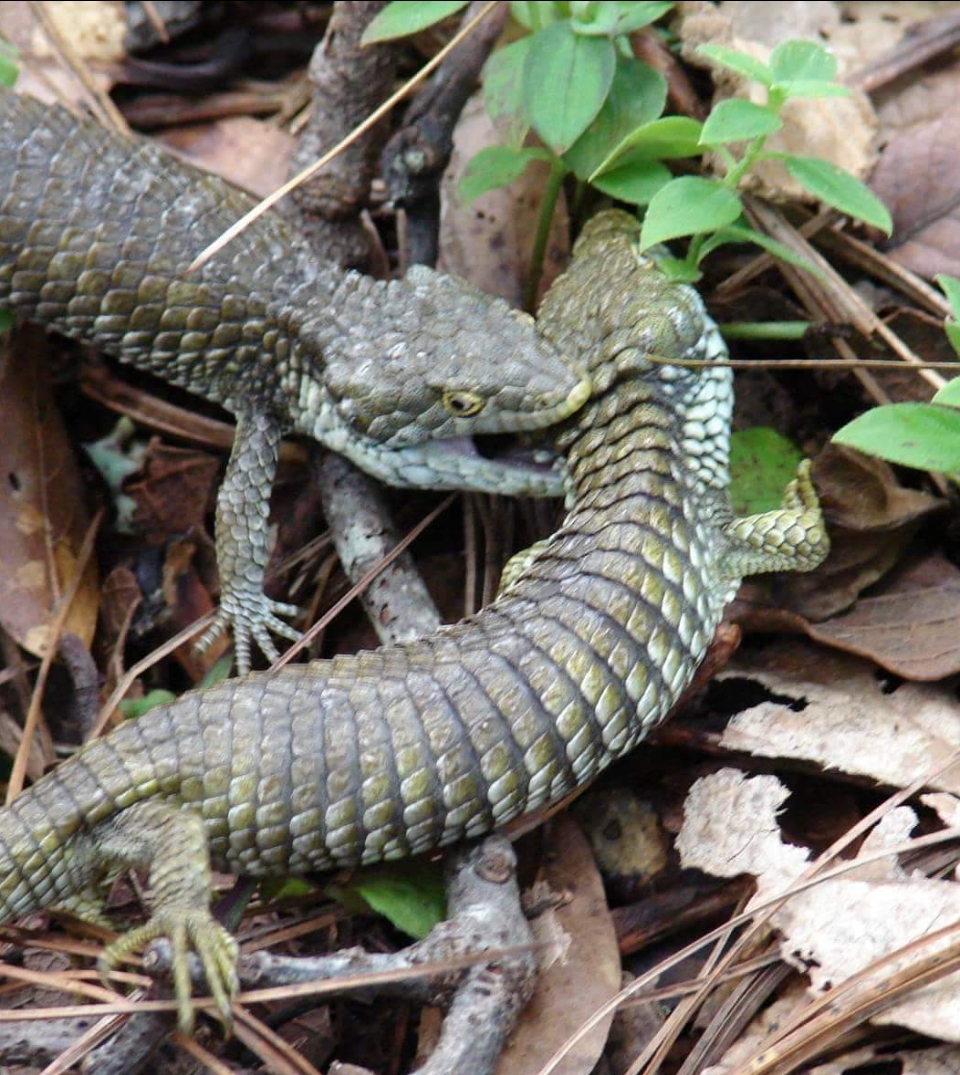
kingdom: Animalia
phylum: Chordata
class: Squamata
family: Anguidae
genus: Abronia
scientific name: Abronia oaxacae
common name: Oaxaca arboreal alligator lizard
